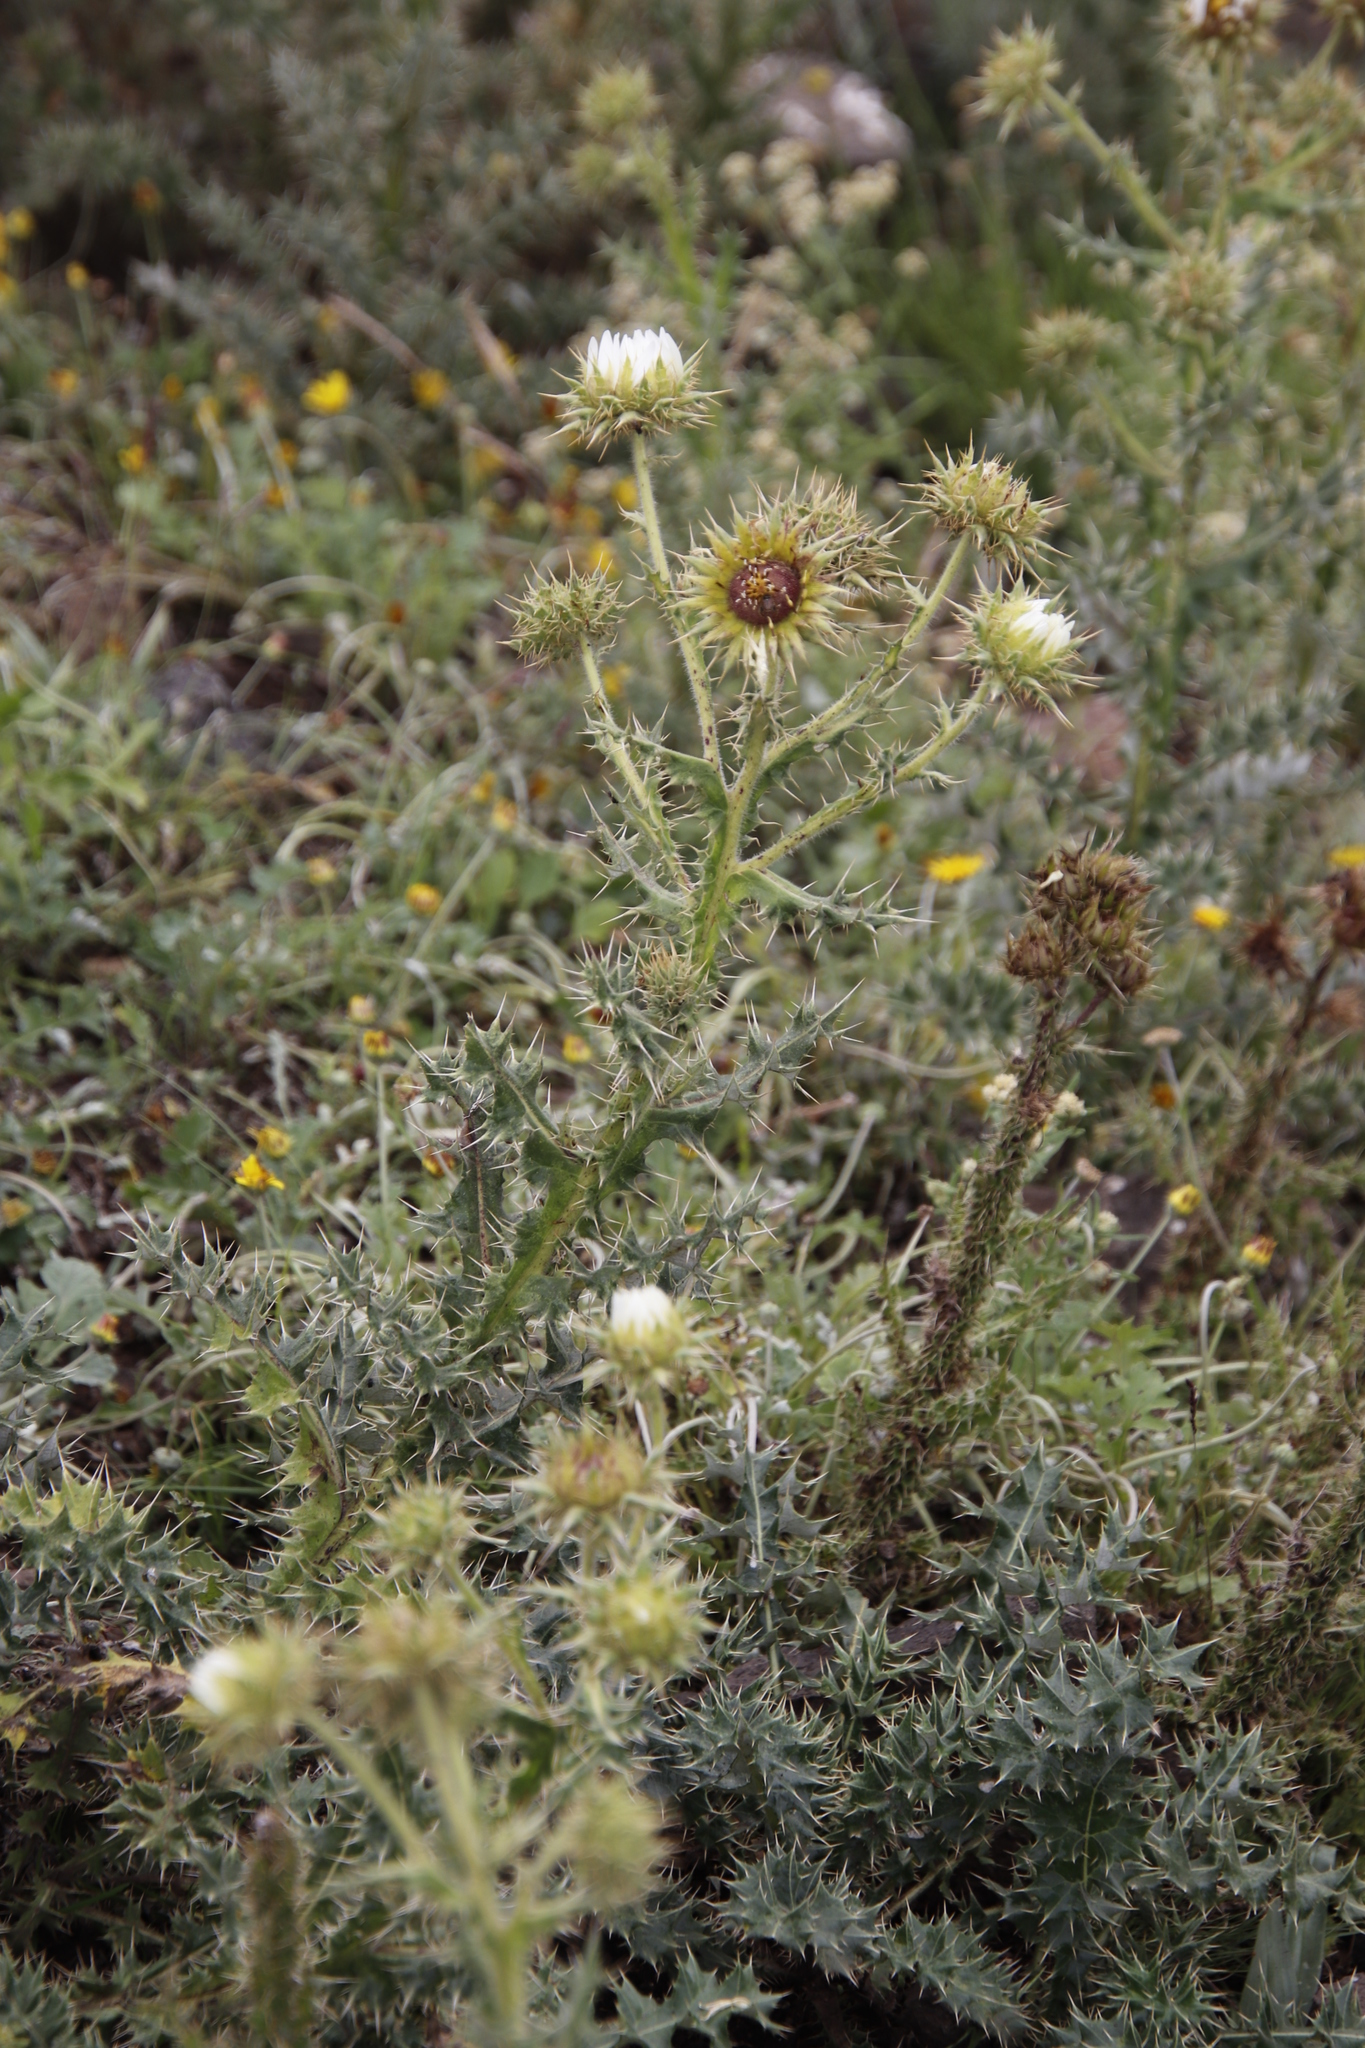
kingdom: Plantae
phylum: Tracheophyta
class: Magnoliopsida
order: Asterales
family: Asteraceae
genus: Berkheya
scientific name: Berkheya cirsiifolia
